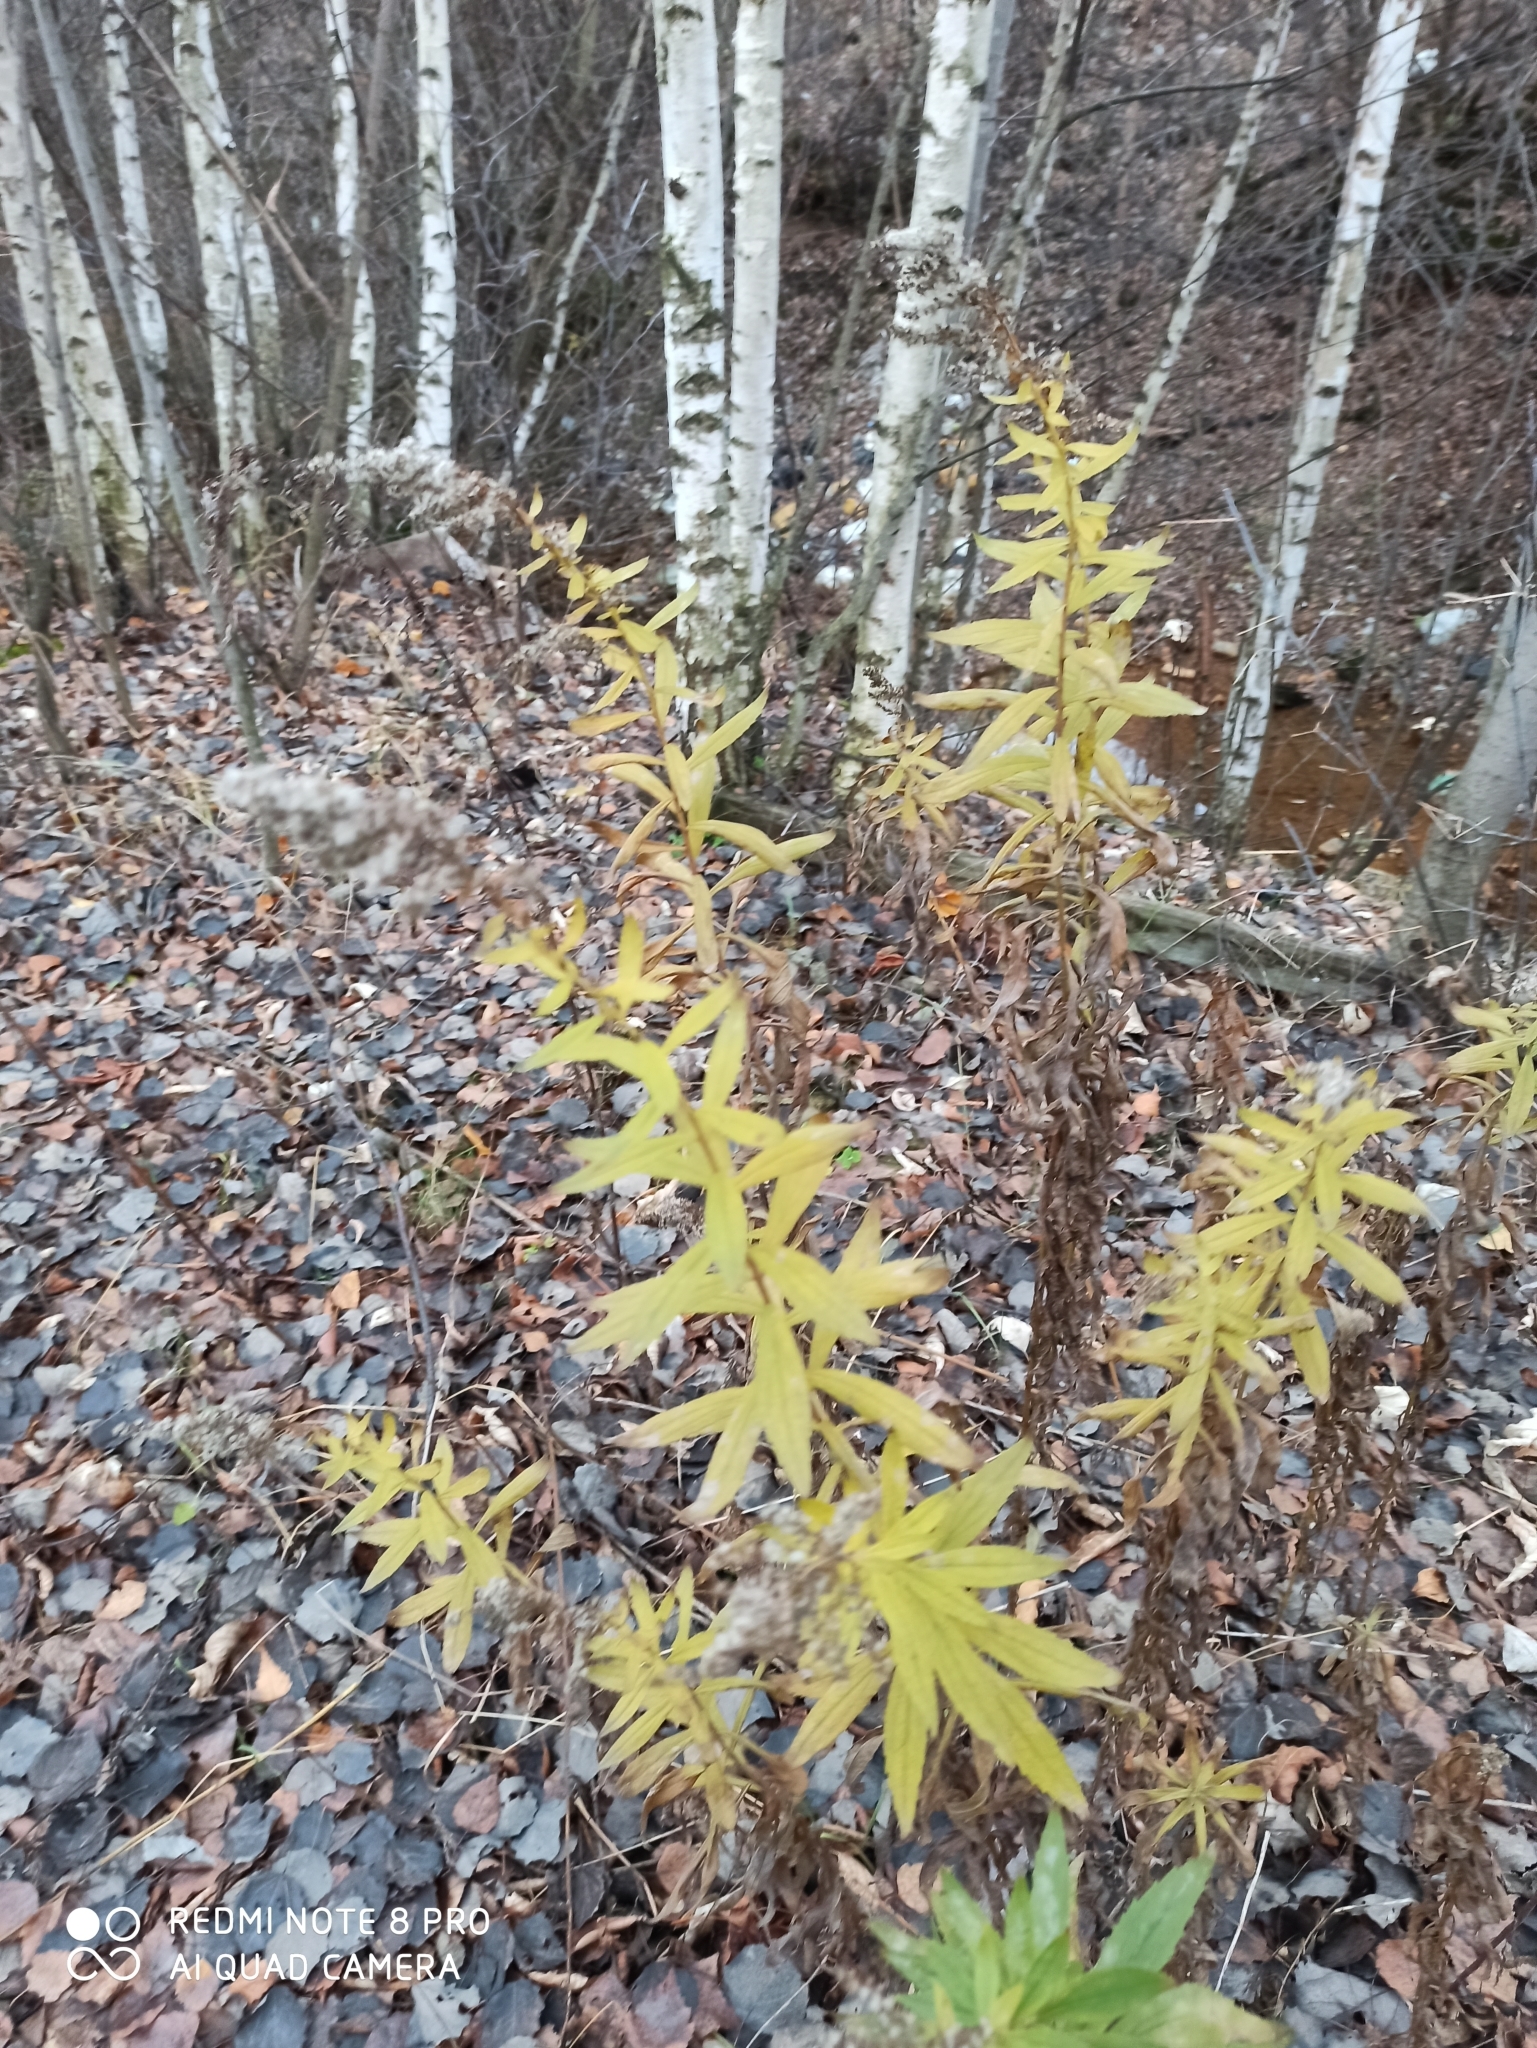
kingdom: Plantae
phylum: Tracheophyta
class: Magnoliopsida
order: Asterales
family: Asteraceae
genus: Solidago
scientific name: Solidago canadensis
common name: Canada goldenrod
